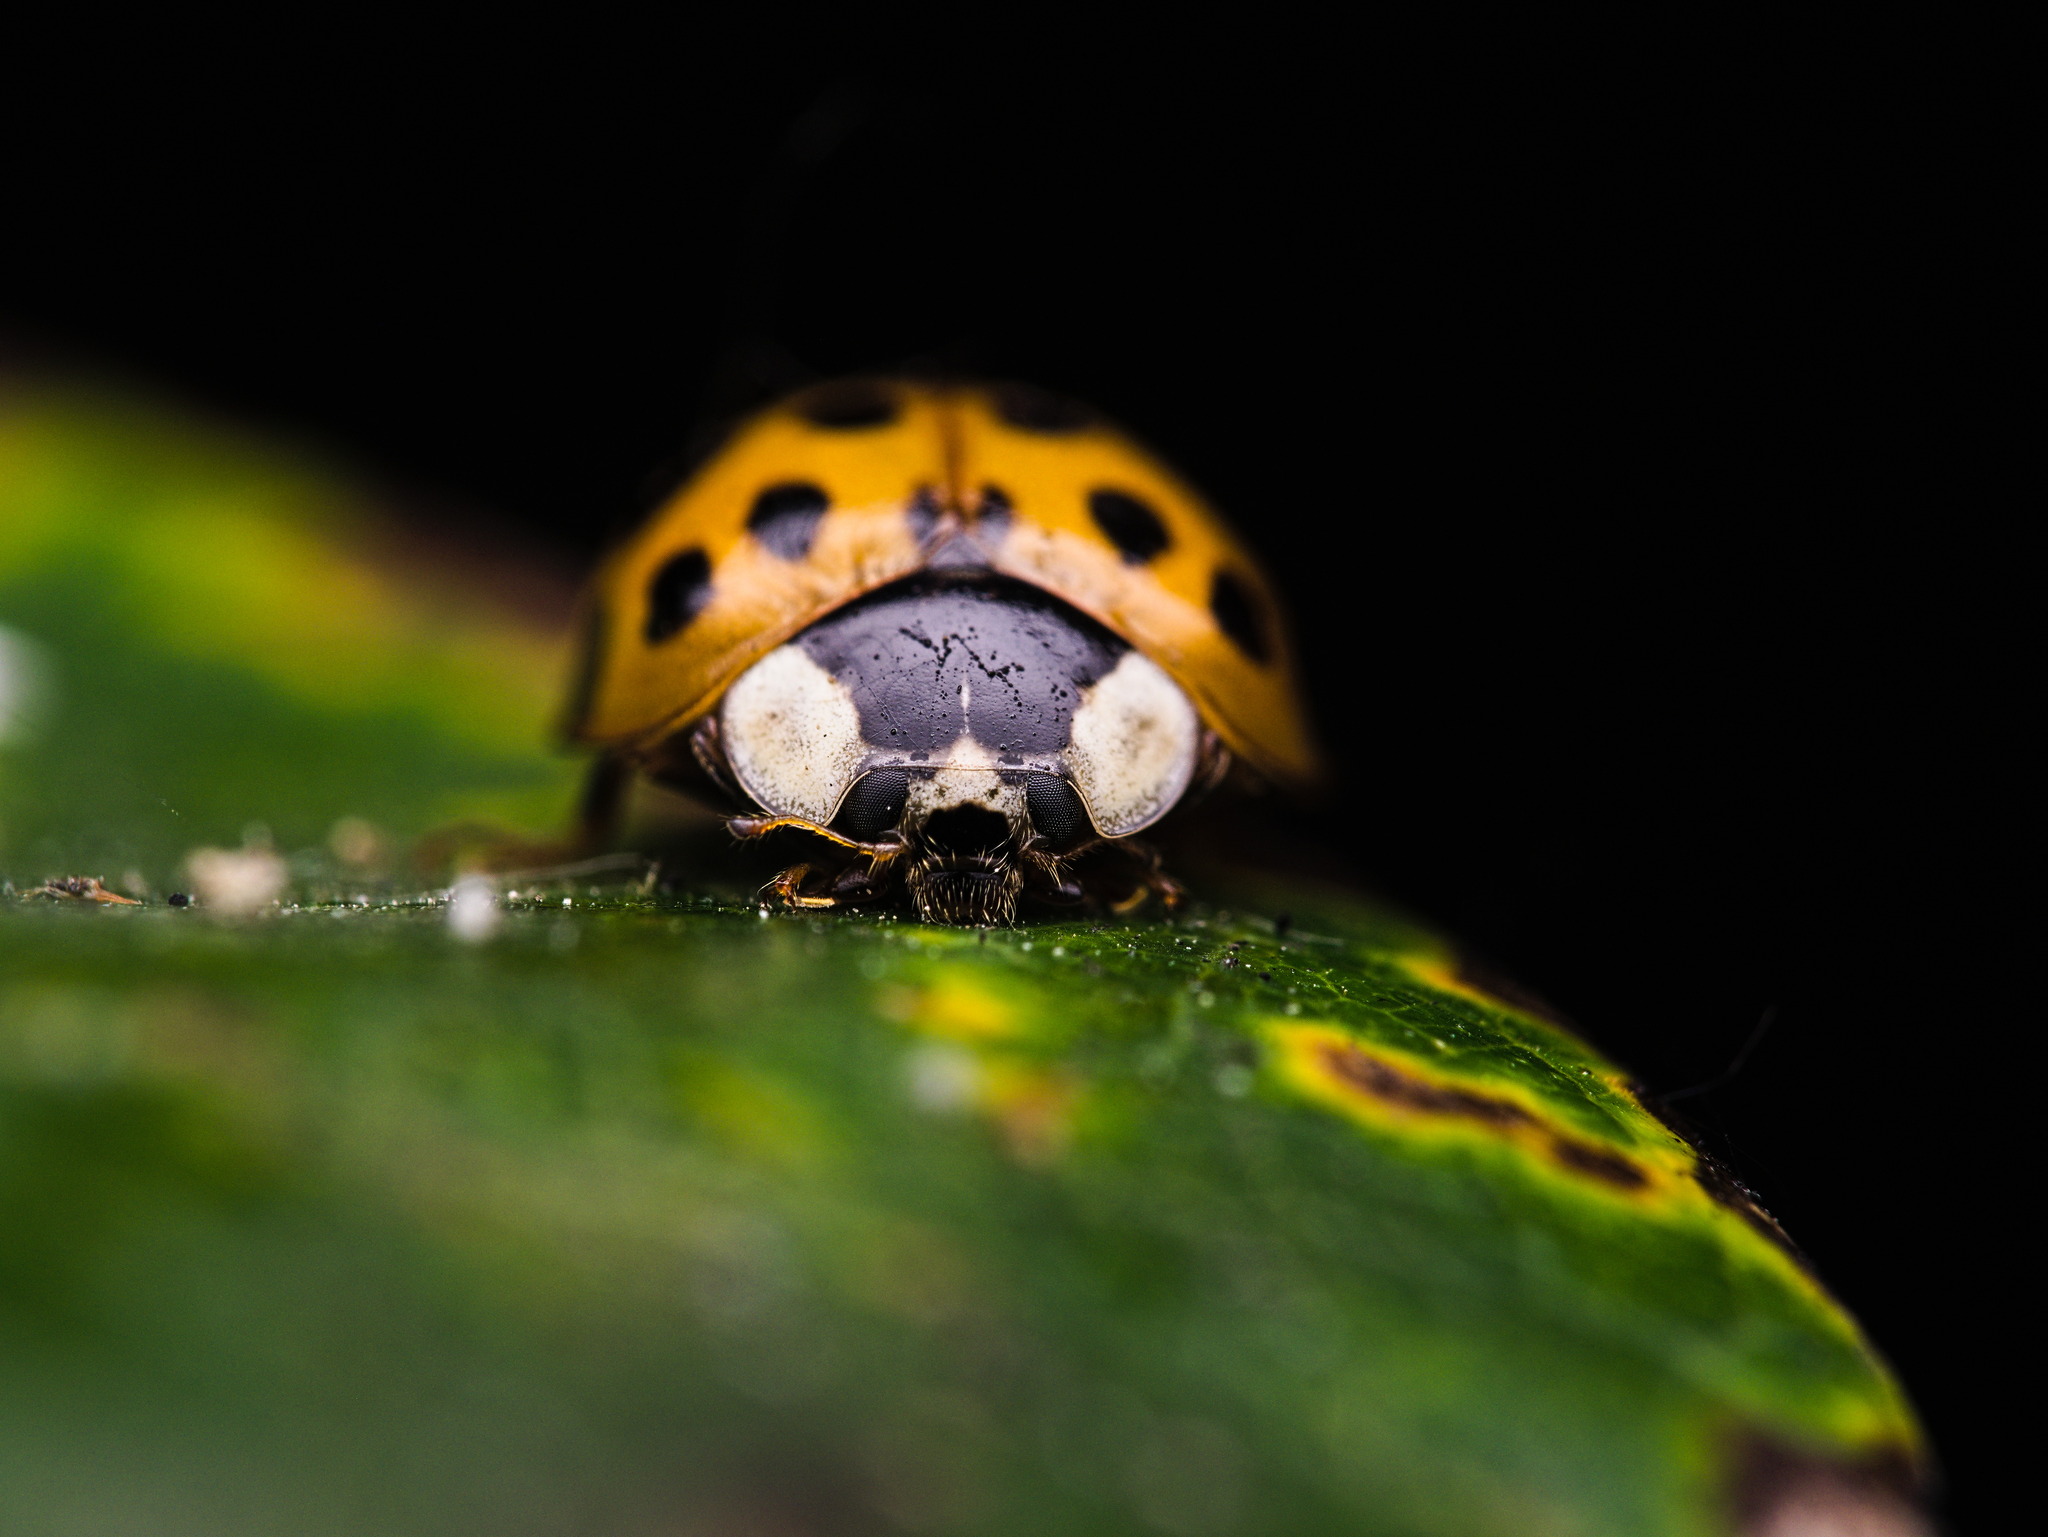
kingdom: Animalia
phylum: Arthropoda
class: Insecta
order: Coleoptera
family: Coccinellidae
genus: Harmonia
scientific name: Harmonia axyridis
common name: Harlequin ladybird
